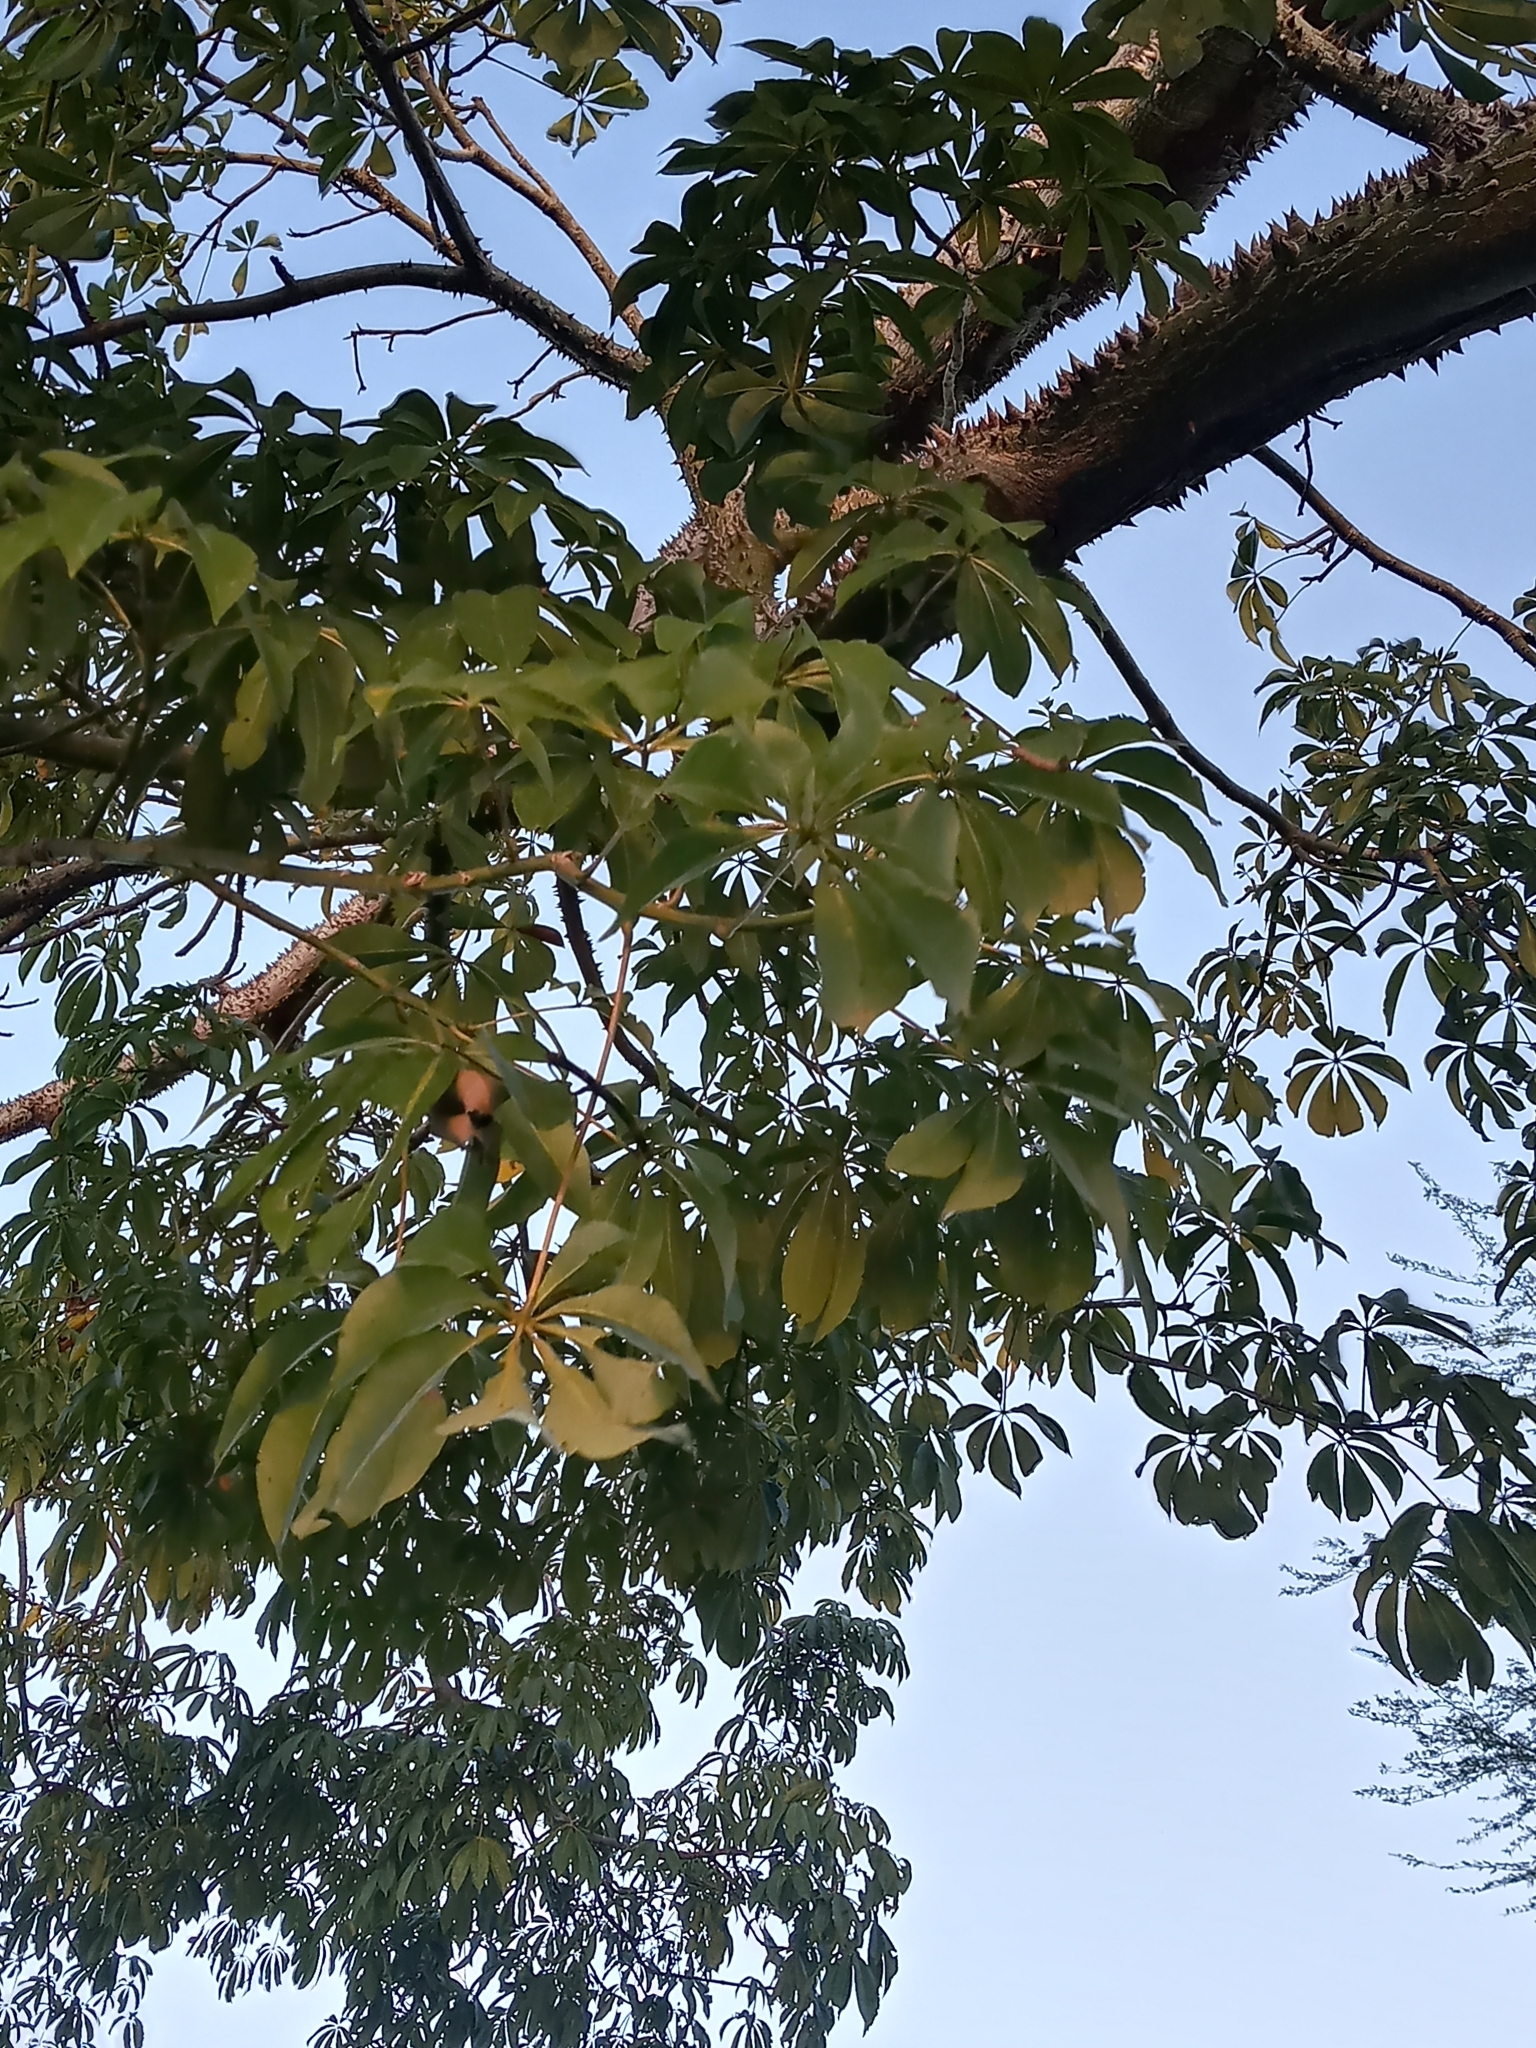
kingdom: Plantae
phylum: Tracheophyta
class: Magnoliopsida
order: Malvales
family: Malvaceae
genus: Ceiba
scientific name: Ceiba pentandra
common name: Kapok
